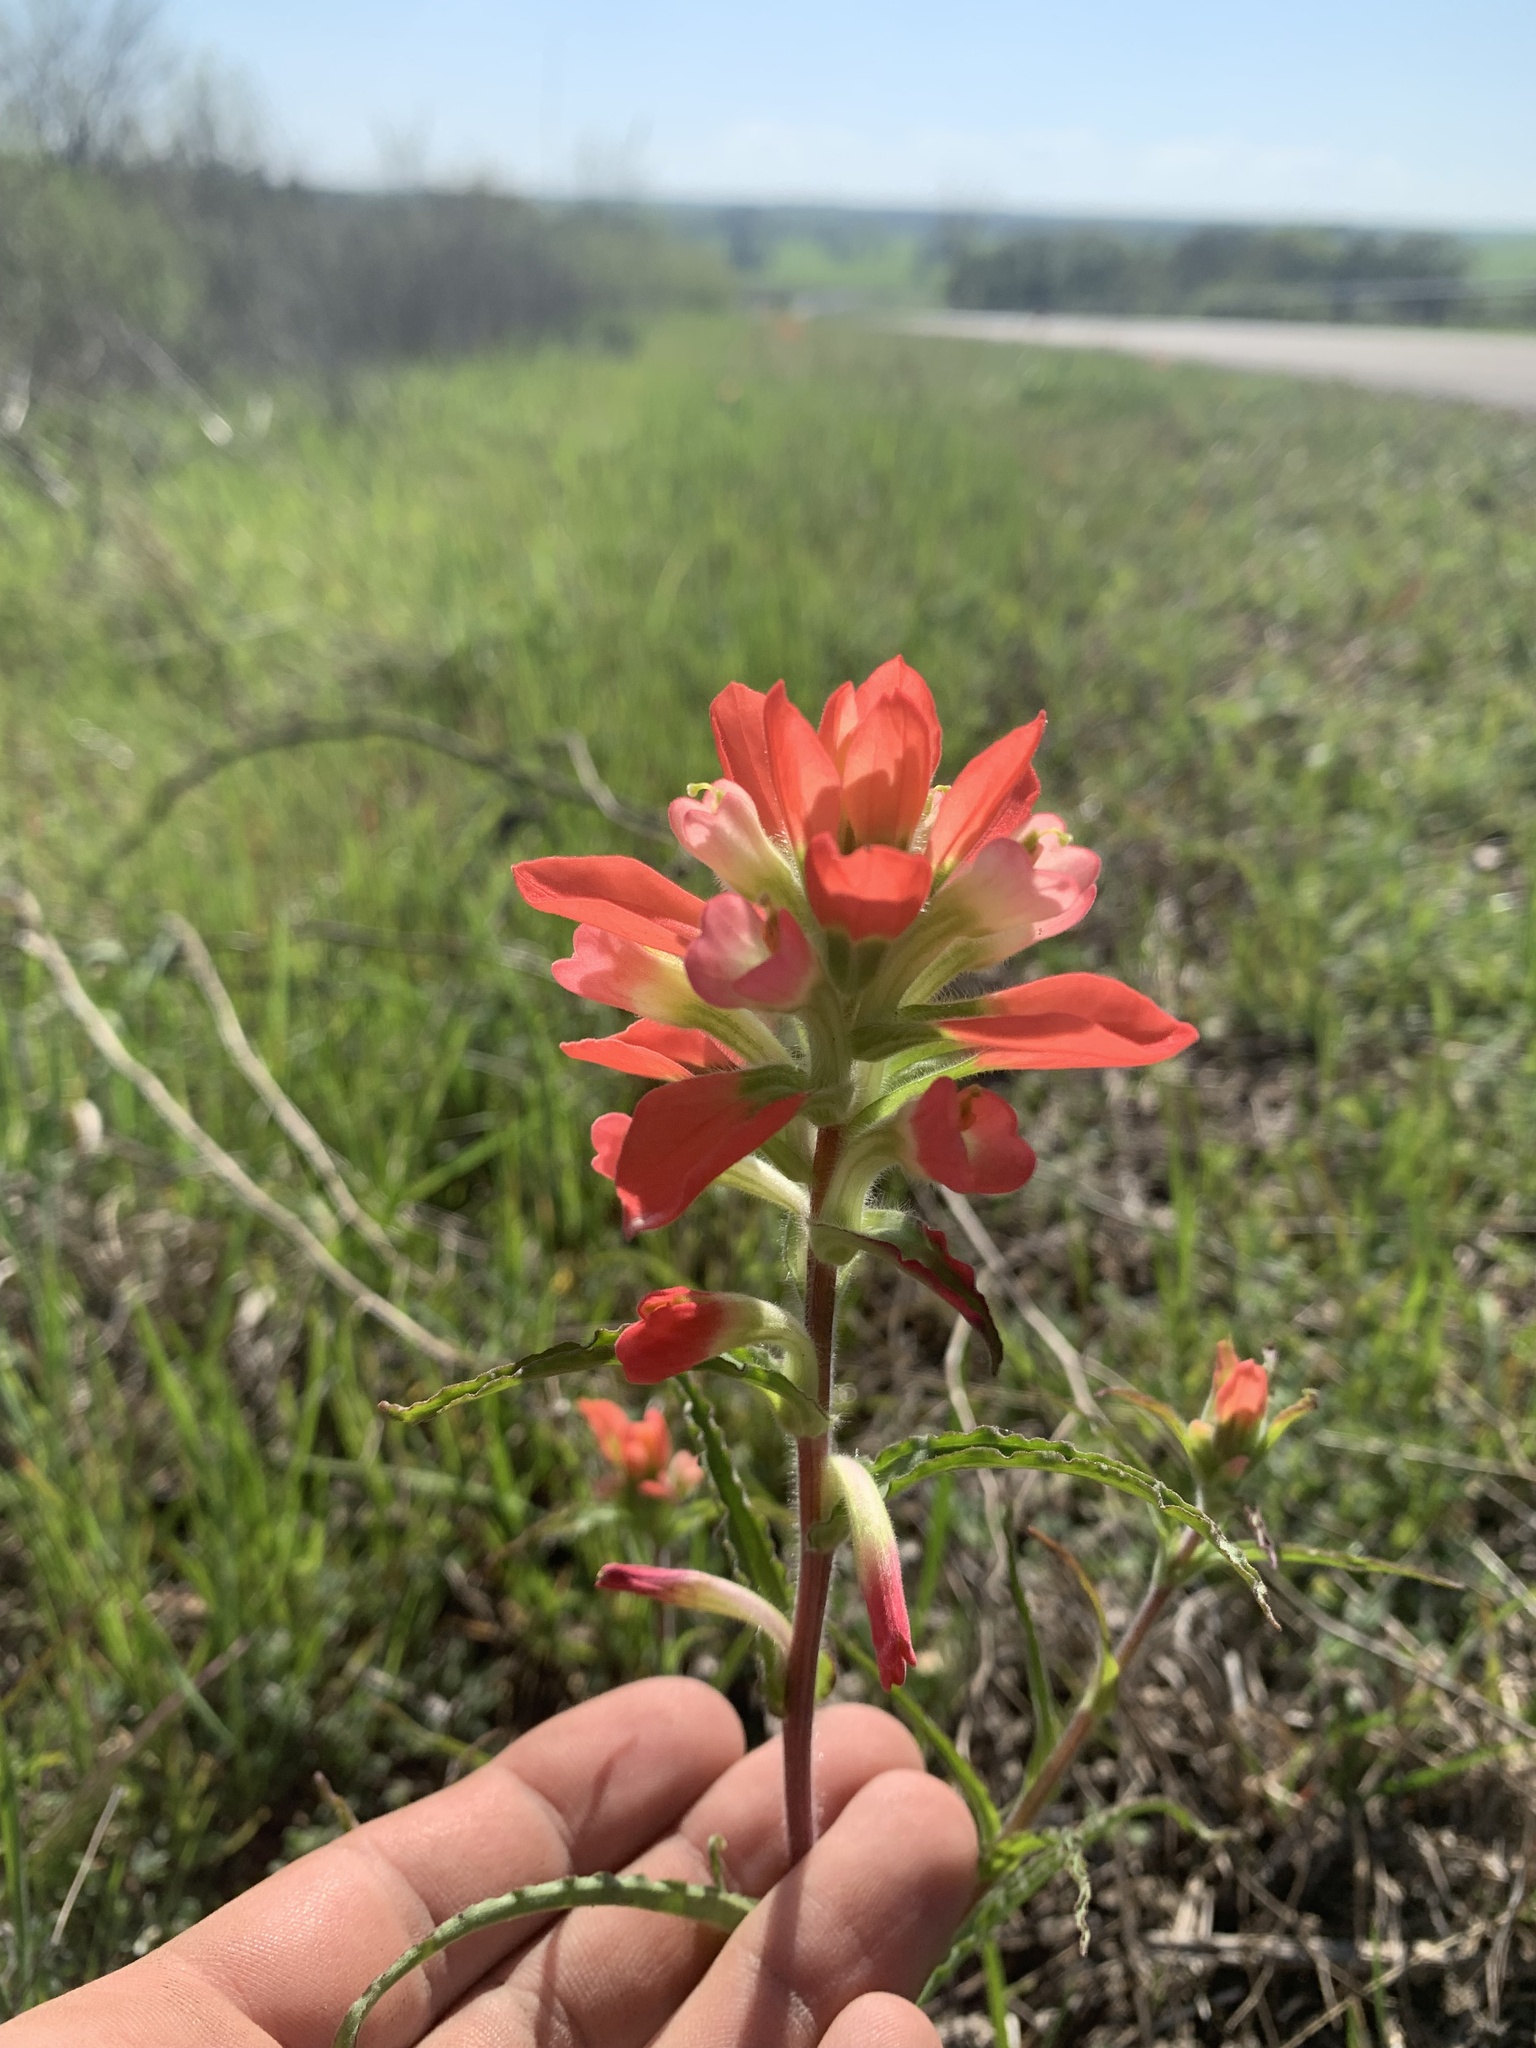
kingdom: Plantae
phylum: Tracheophyta
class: Magnoliopsida
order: Lamiales
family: Orobanchaceae
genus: Castilleja
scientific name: Castilleja indivisa
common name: Texas paintbrush
